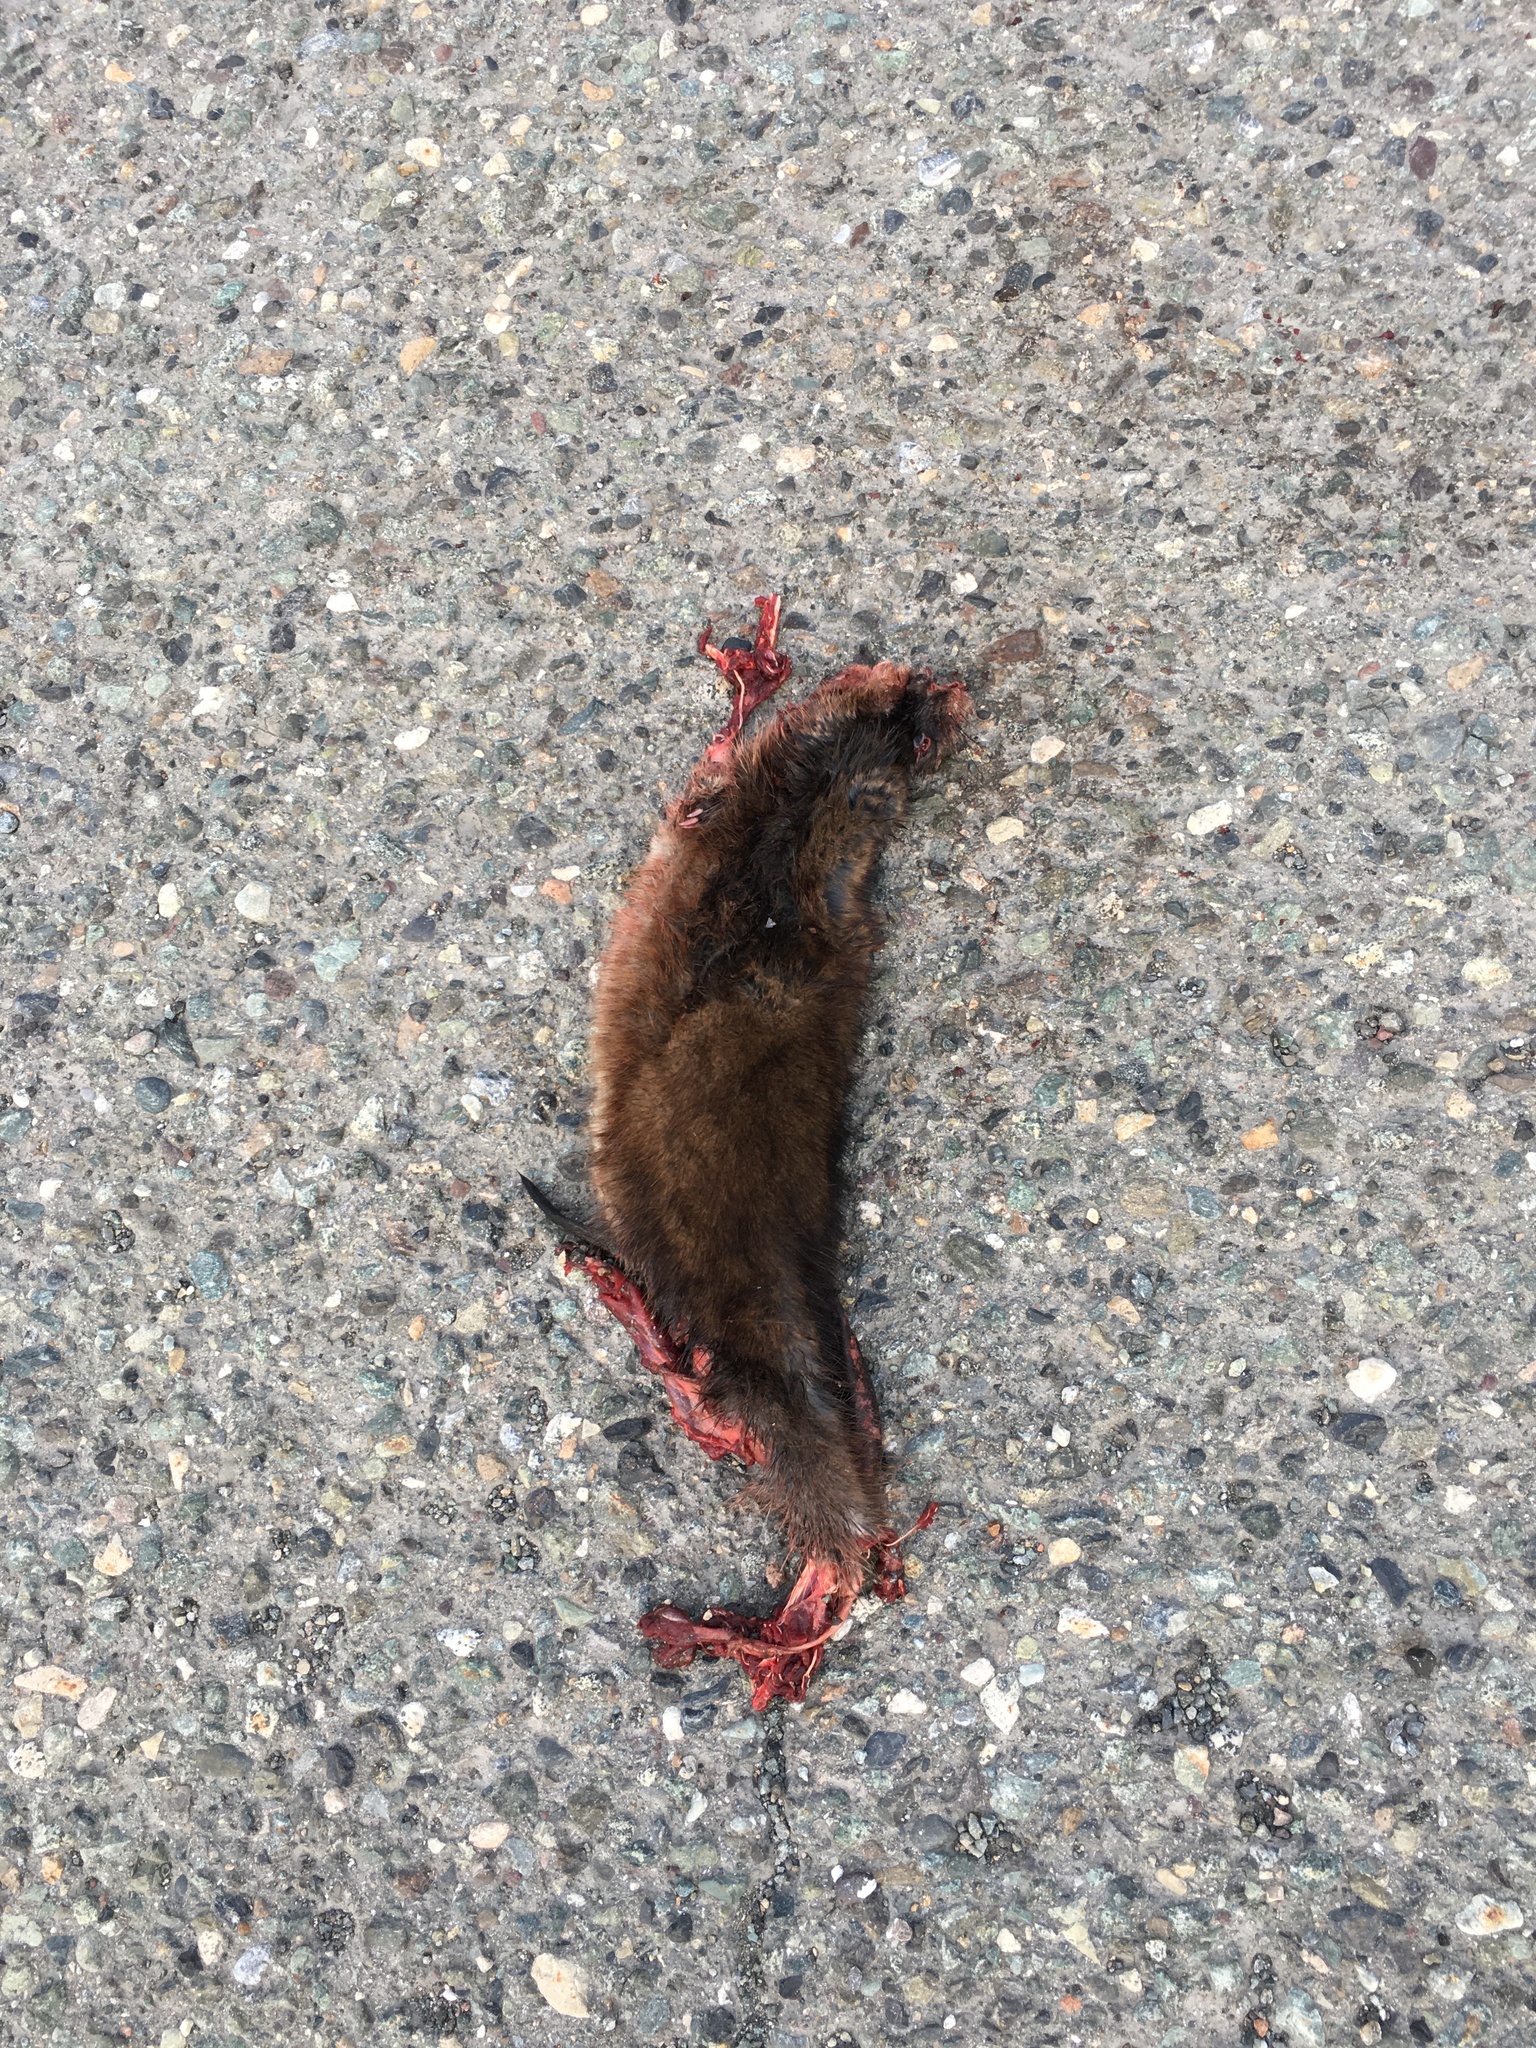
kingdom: Animalia
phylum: Chordata
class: Mammalia
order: Rodentia
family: Cricetidae
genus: Ondatra
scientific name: Ondatra zibethicus
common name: Muskrat
